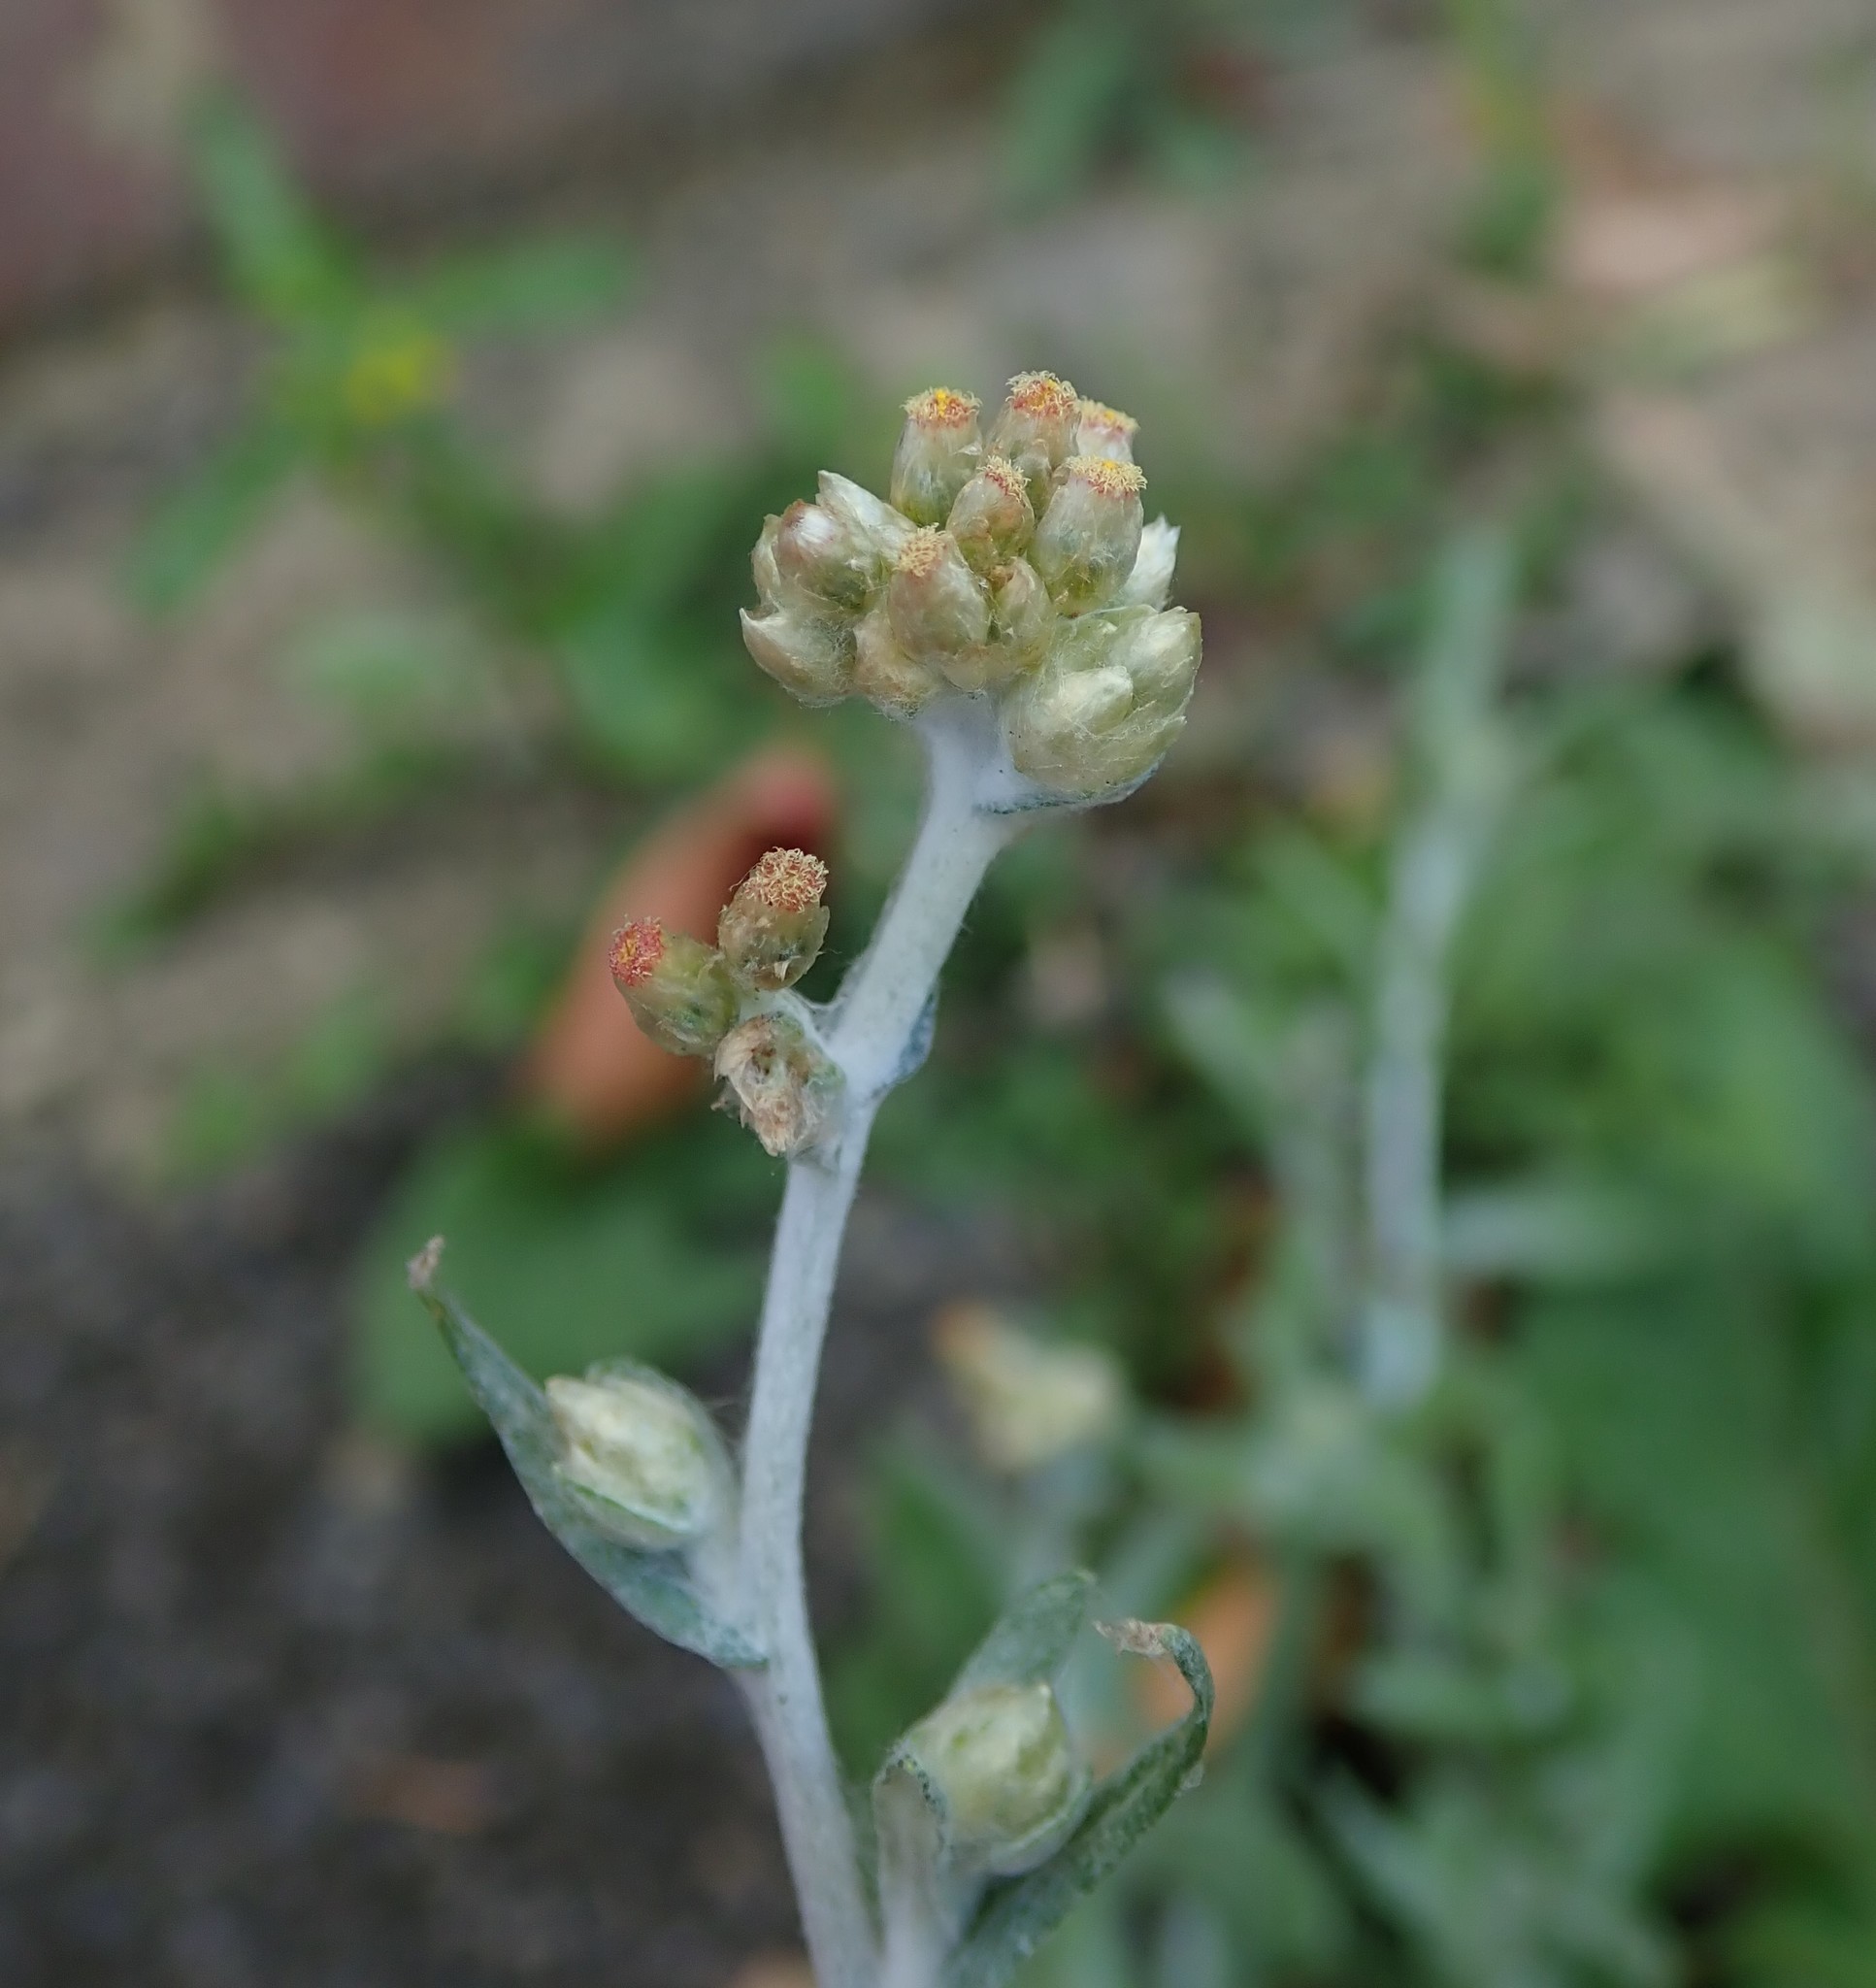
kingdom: Plantae
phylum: Tracheophyta
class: Magnoliopsida
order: Asterales
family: Asteraceae
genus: Helichrysum
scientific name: Helichrysum luteoalbum
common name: Daisy
